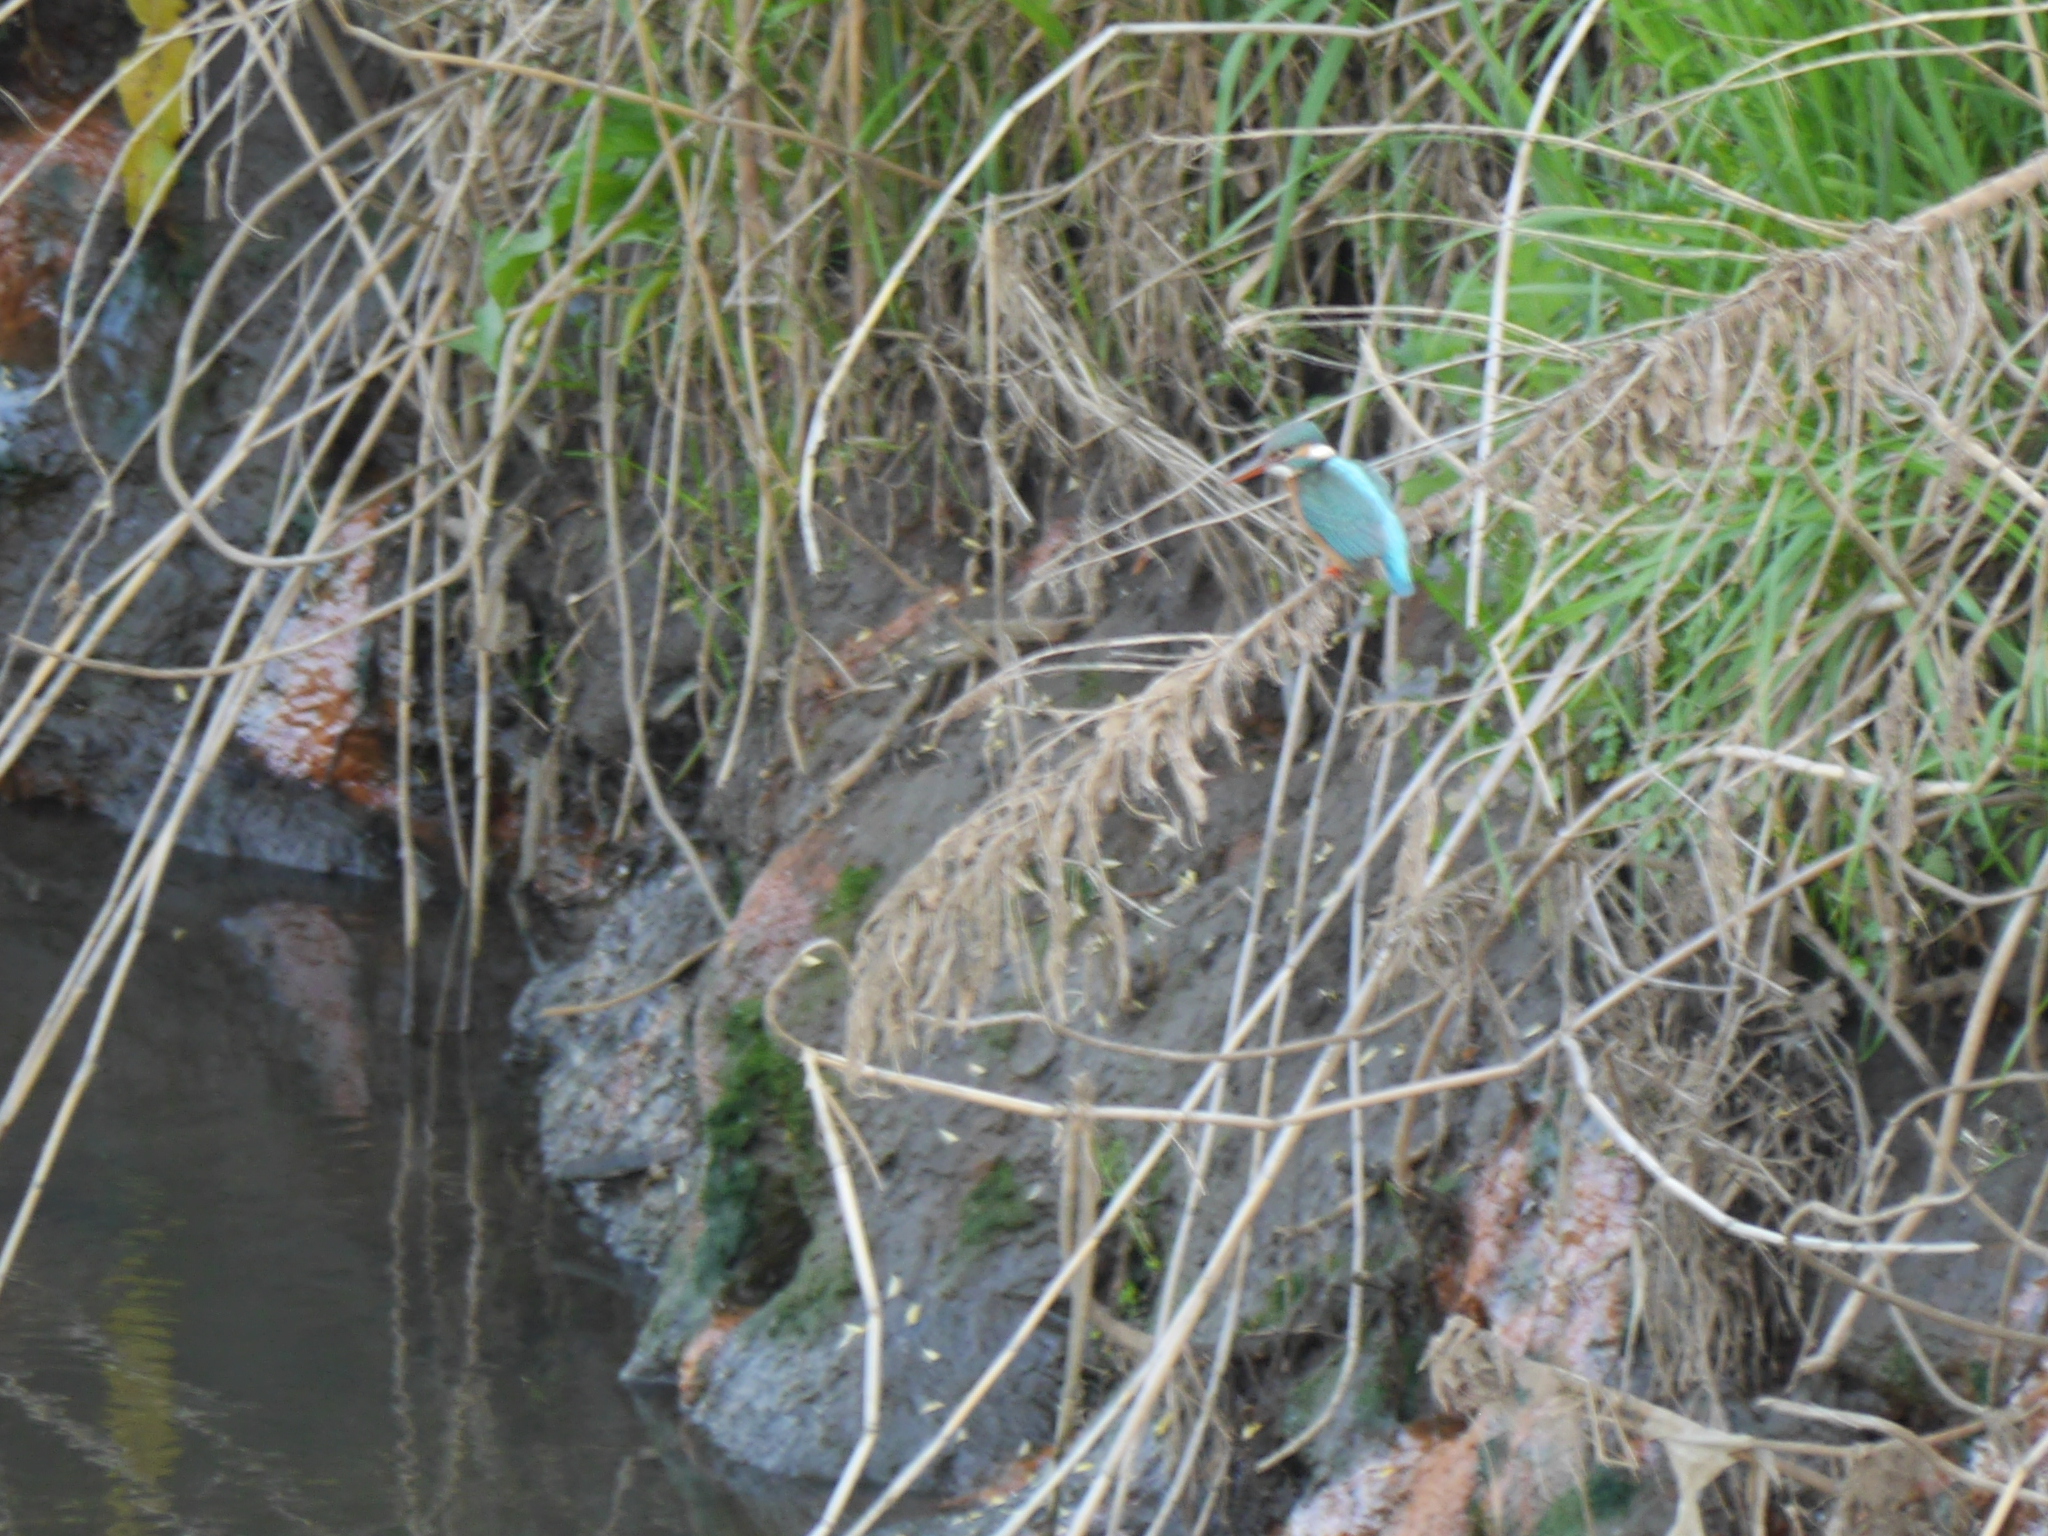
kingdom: Animalia
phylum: Chordata
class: Aves
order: Coraciiformes
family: Alcedinidae
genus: Alcedo
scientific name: Alcedo atthis
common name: Common kingfisher
